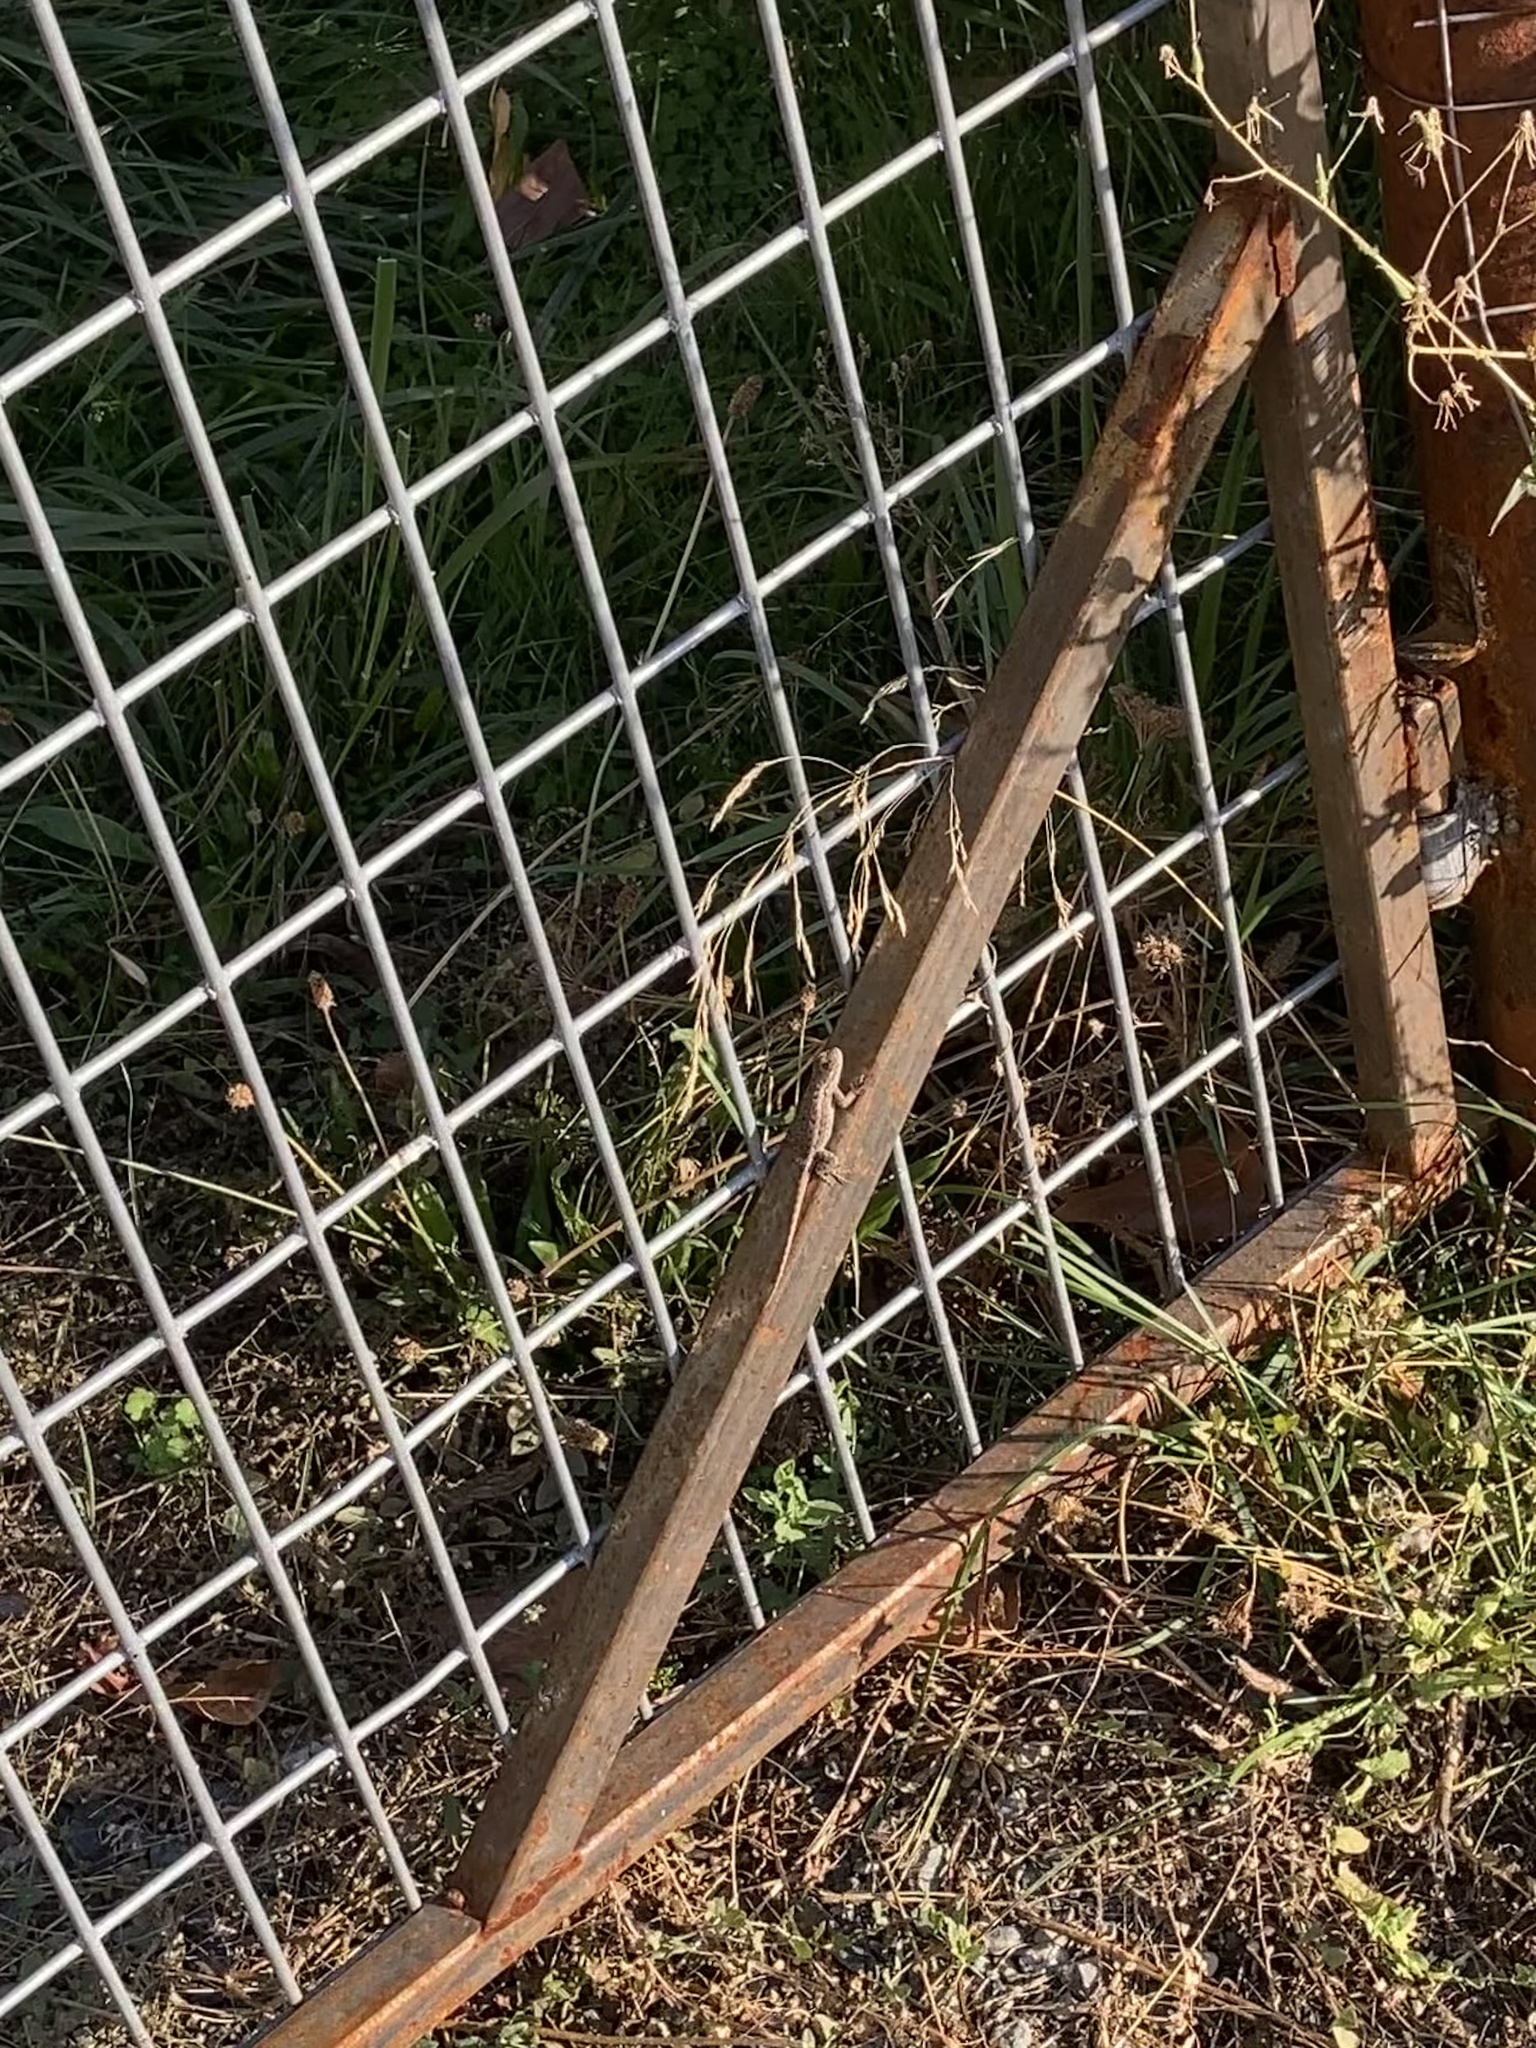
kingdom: Animalia
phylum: Chordata
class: Squamata
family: Phrynosomatidae
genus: Sceloporus
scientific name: Sceloporus occidentalis
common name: Western fence lizard
